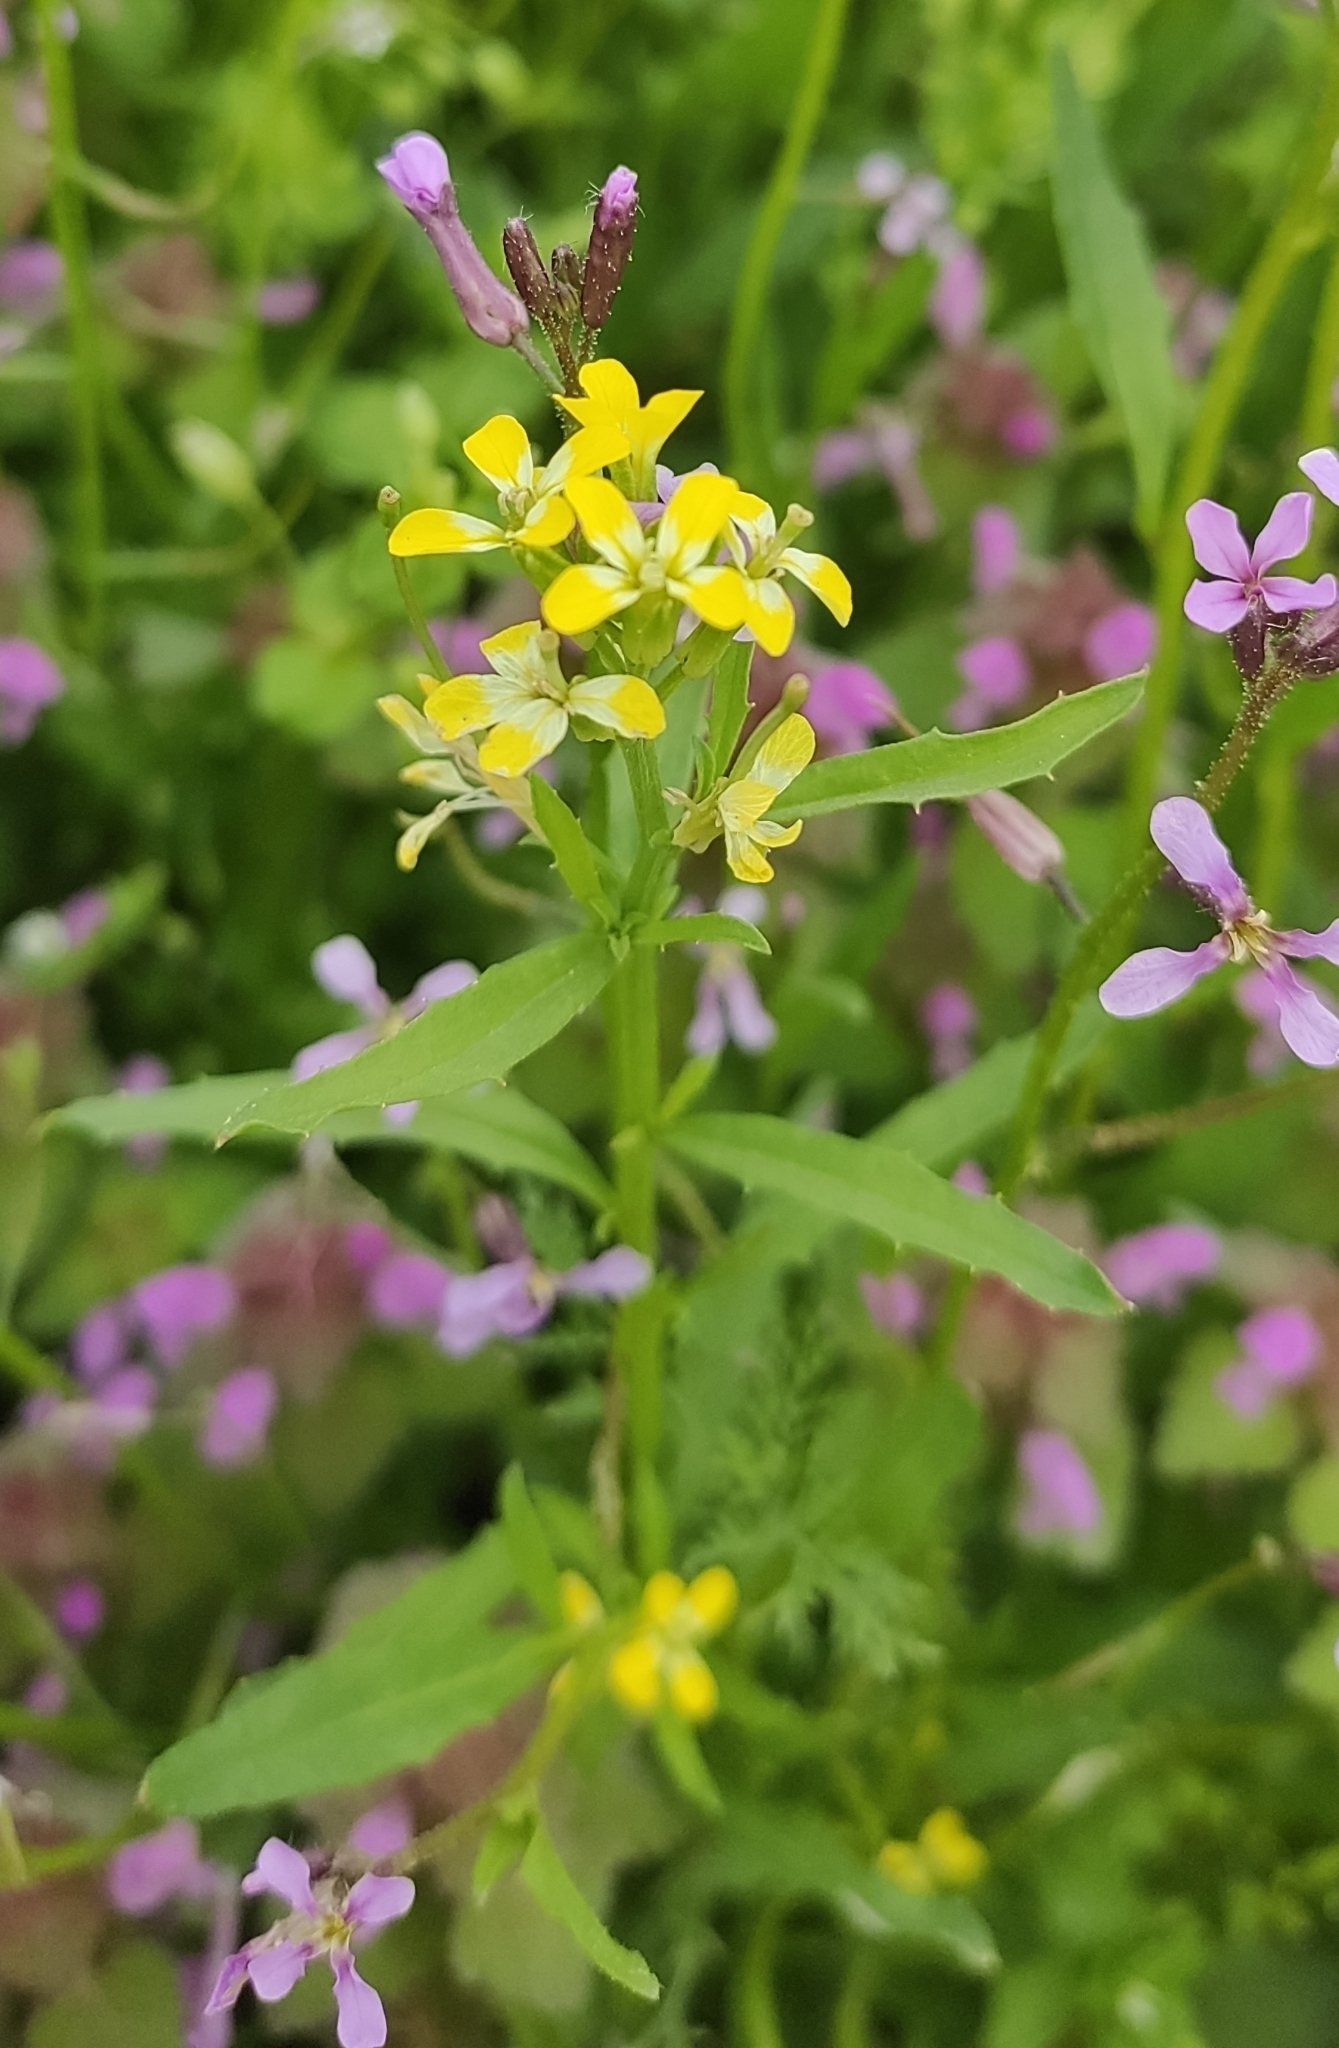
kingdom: Plantae
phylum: Tracheophyta
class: Magnoliopsida
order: Brassicales
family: Brassicaceae
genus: Erysimum
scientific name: Erysimum repandum
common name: Spreading wallflower
